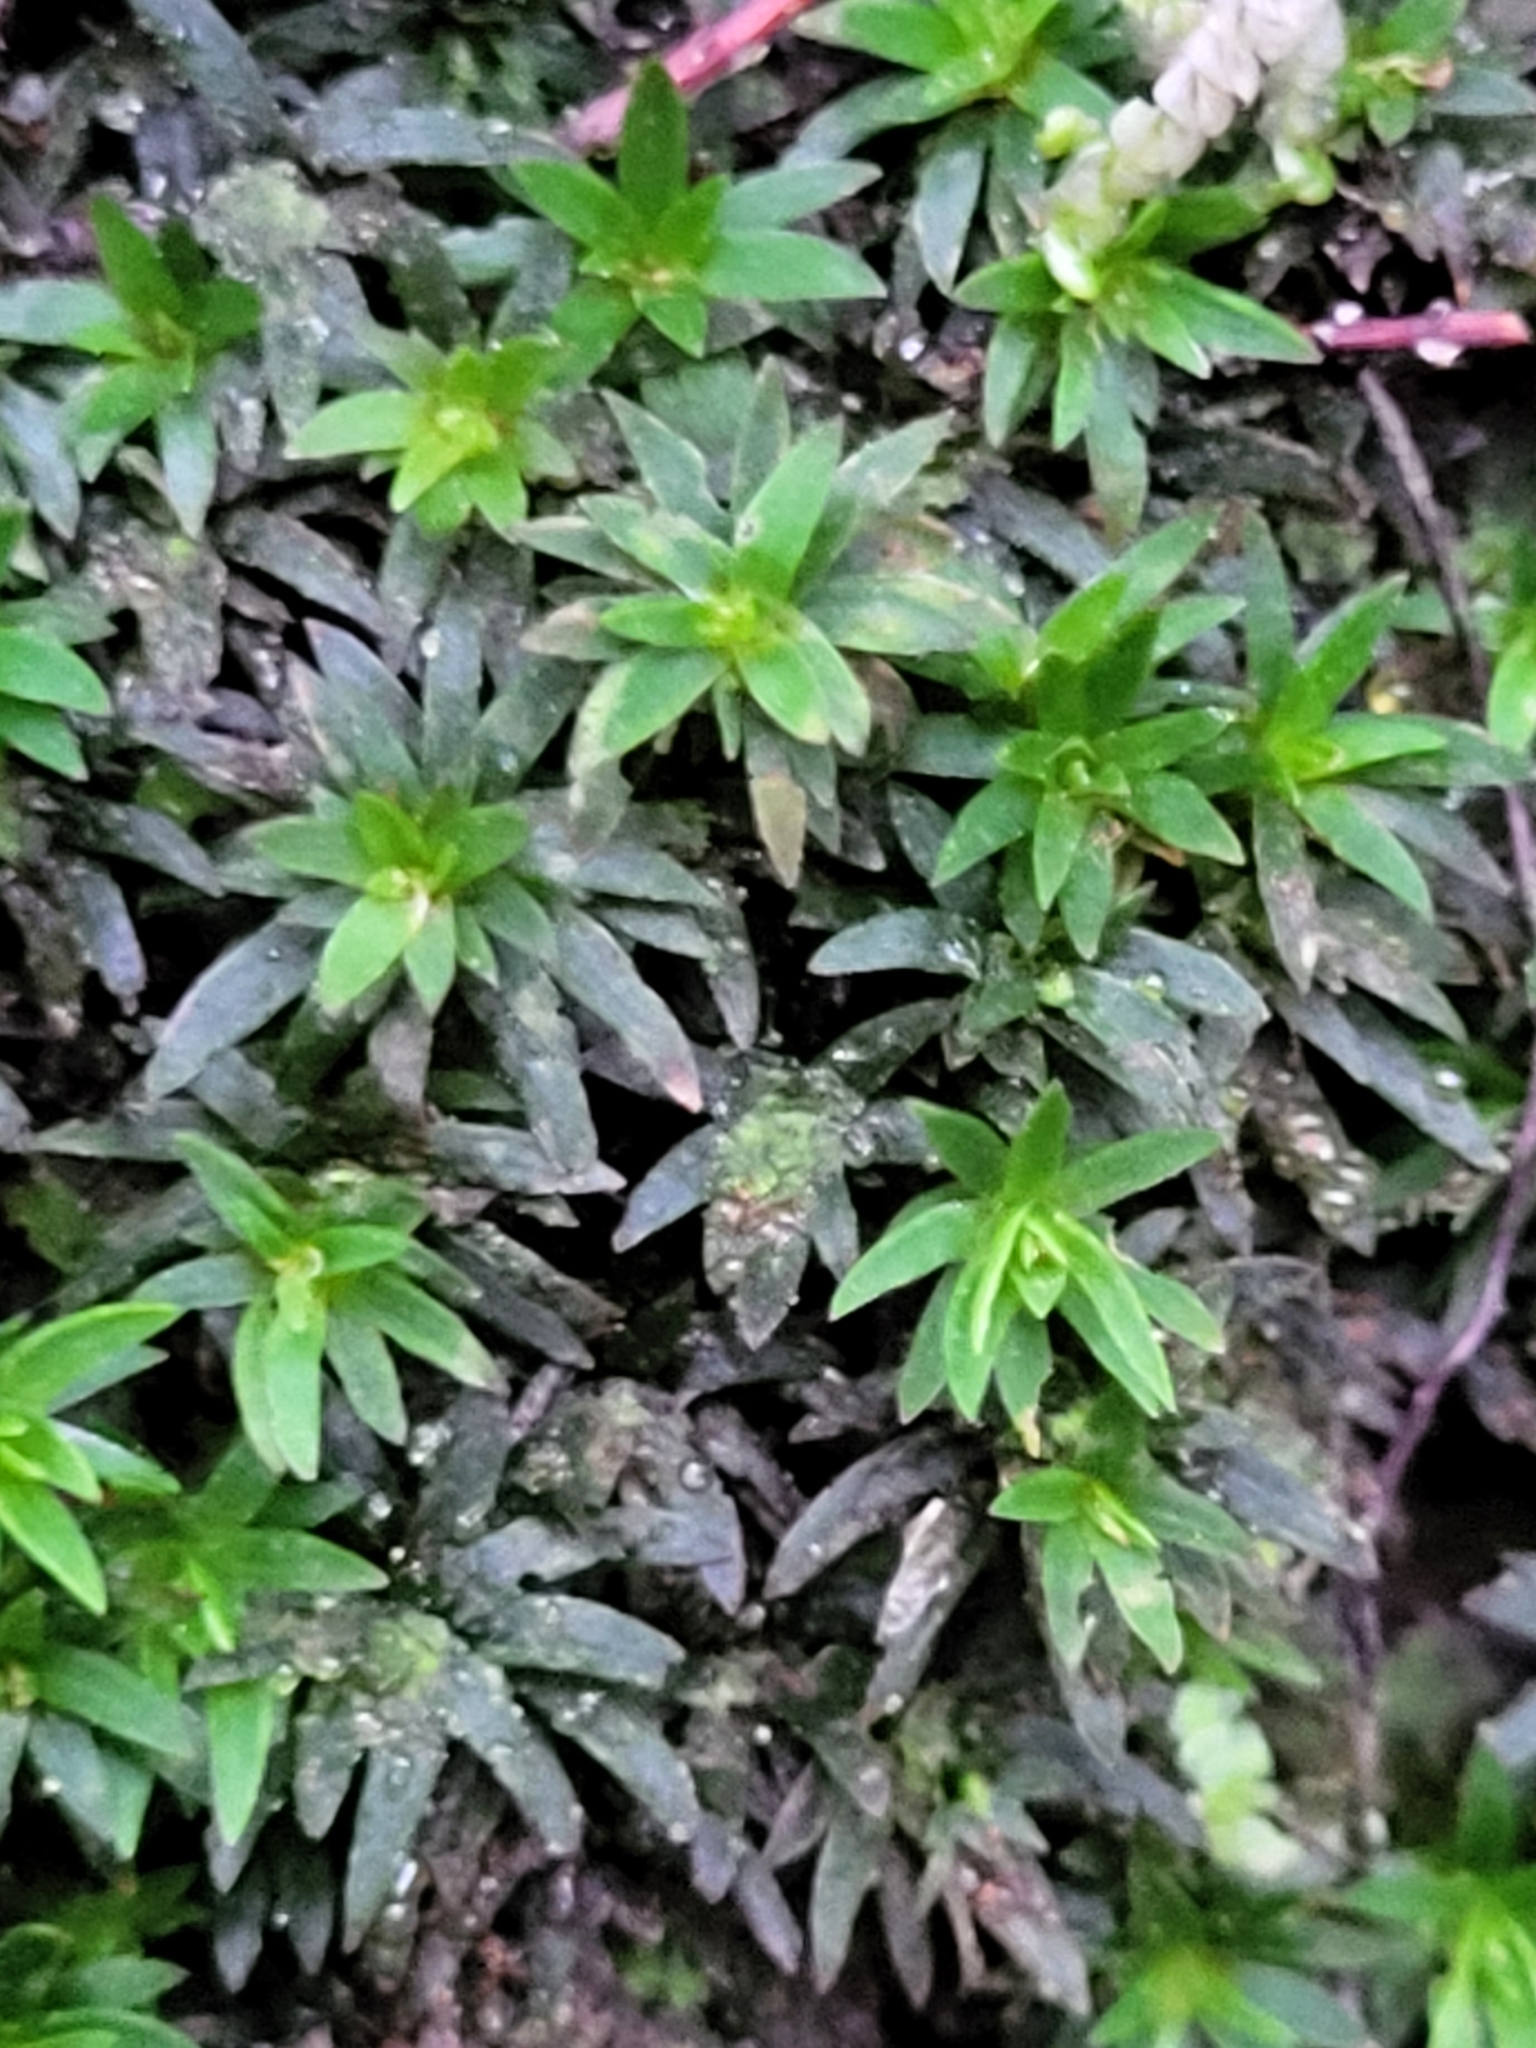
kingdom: Plantae
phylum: Bryophyta
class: Polytrichopsida
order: Polytrichales
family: Polytrichaceae
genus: Pogonatum
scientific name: Pogonatum aloides
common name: Aloe haircap
